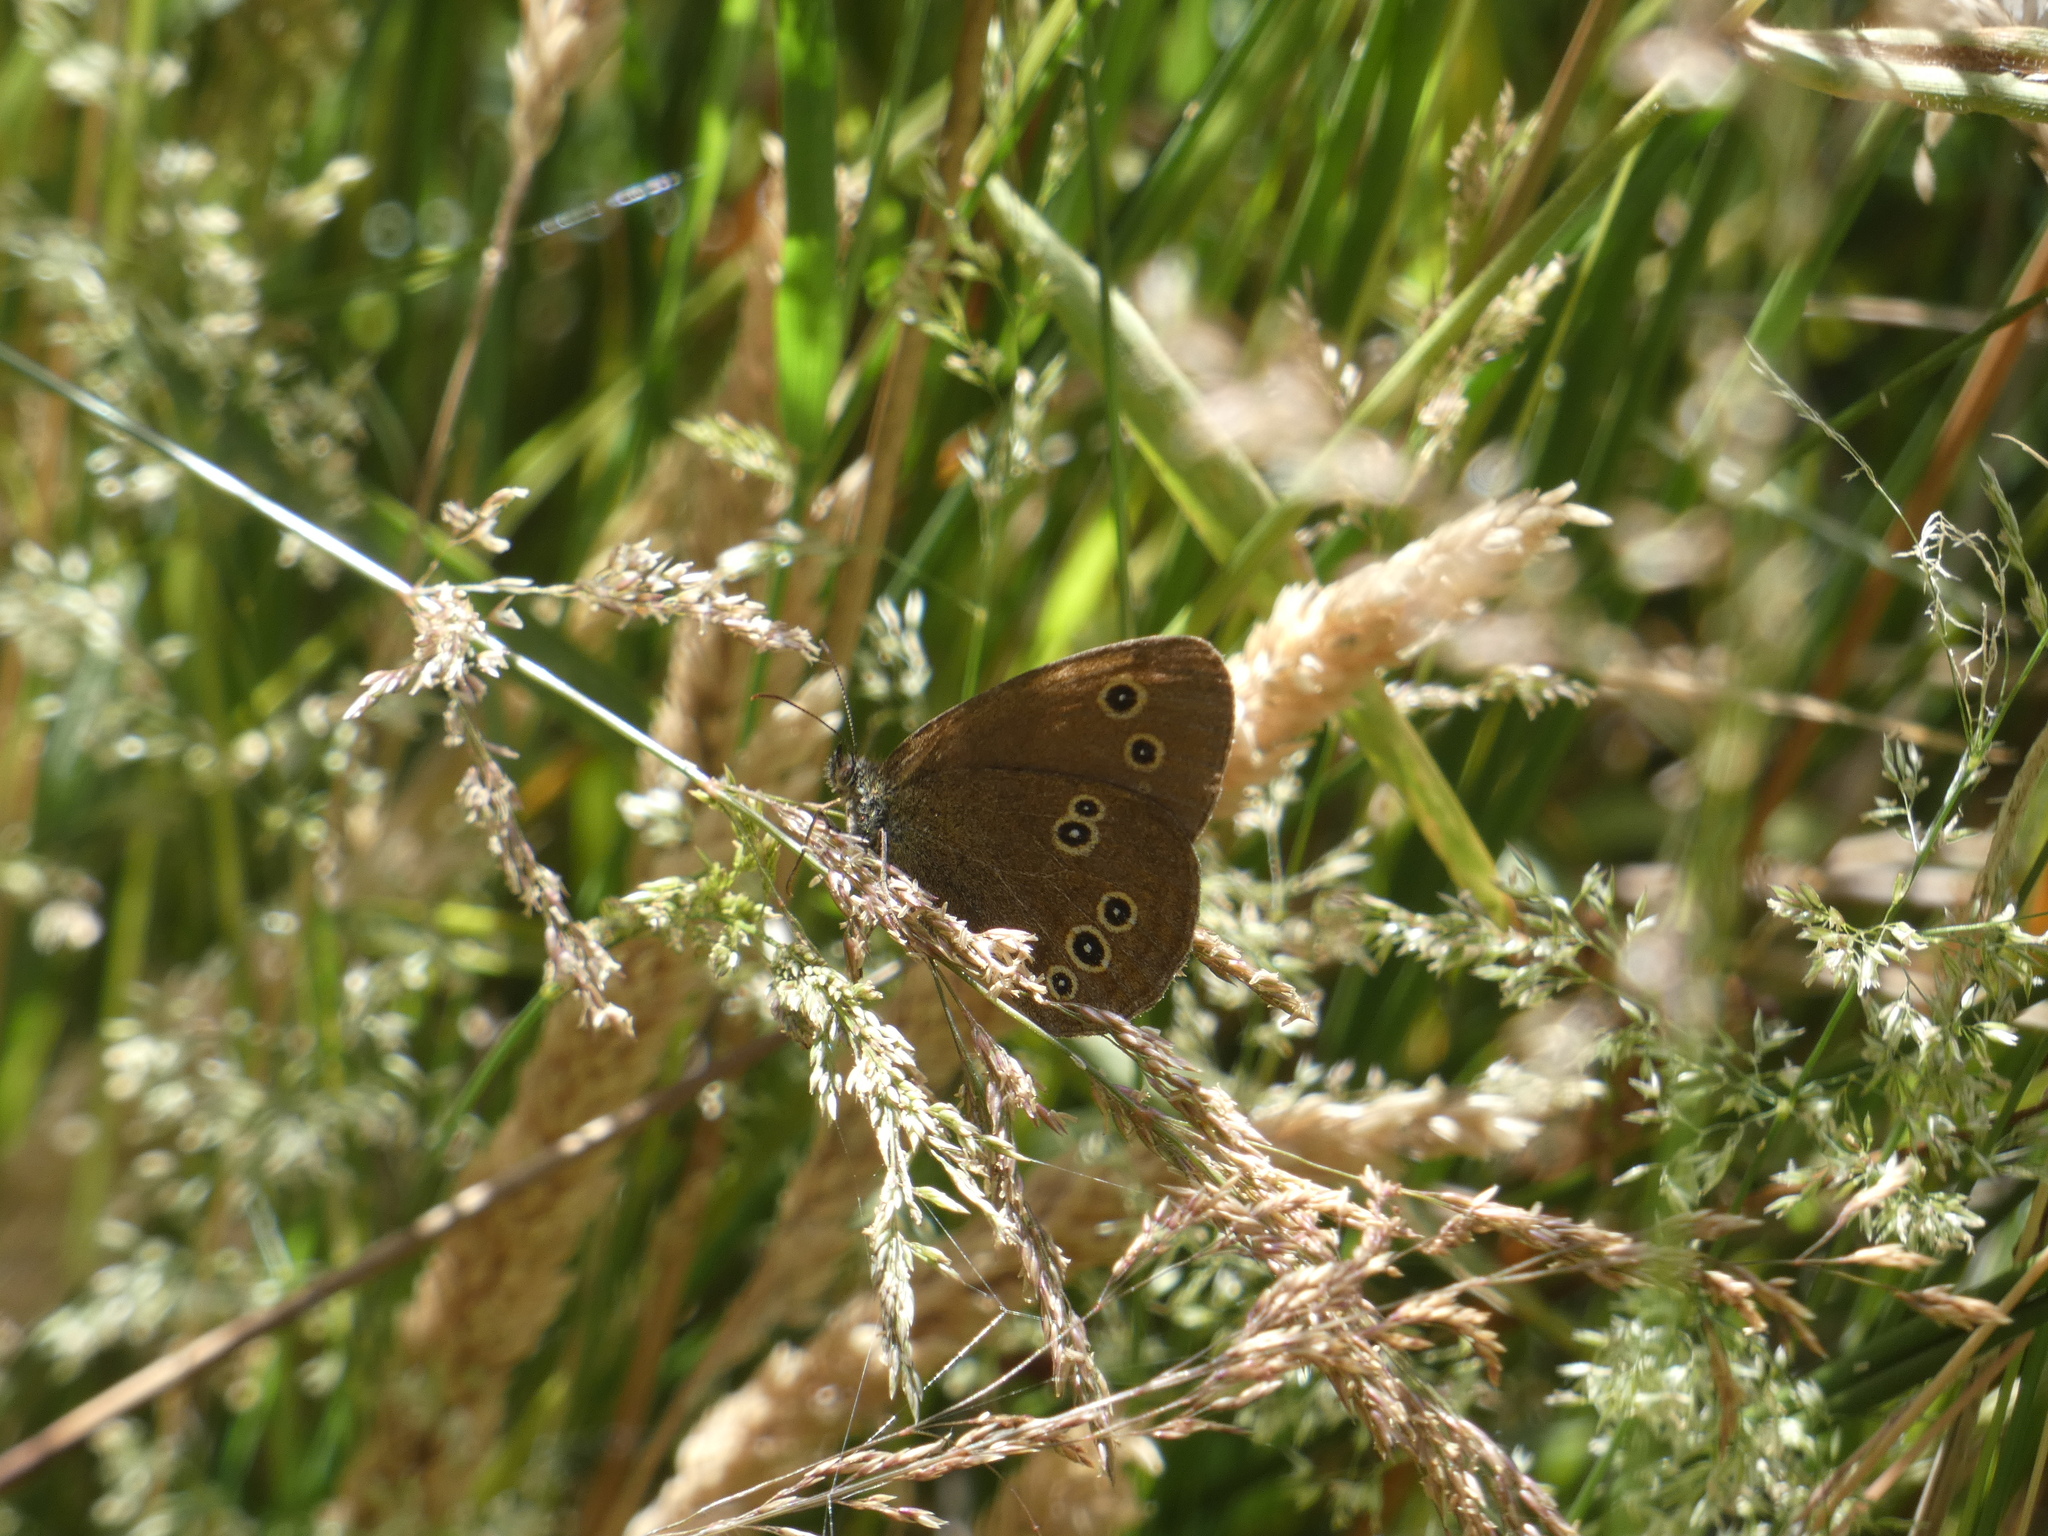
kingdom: Animalia
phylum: Arthropoda
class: Insecta
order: Lepidoptera
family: Nymphalidae
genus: Aphantopus
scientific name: Aphantopus hyperantus
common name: Ringlet
